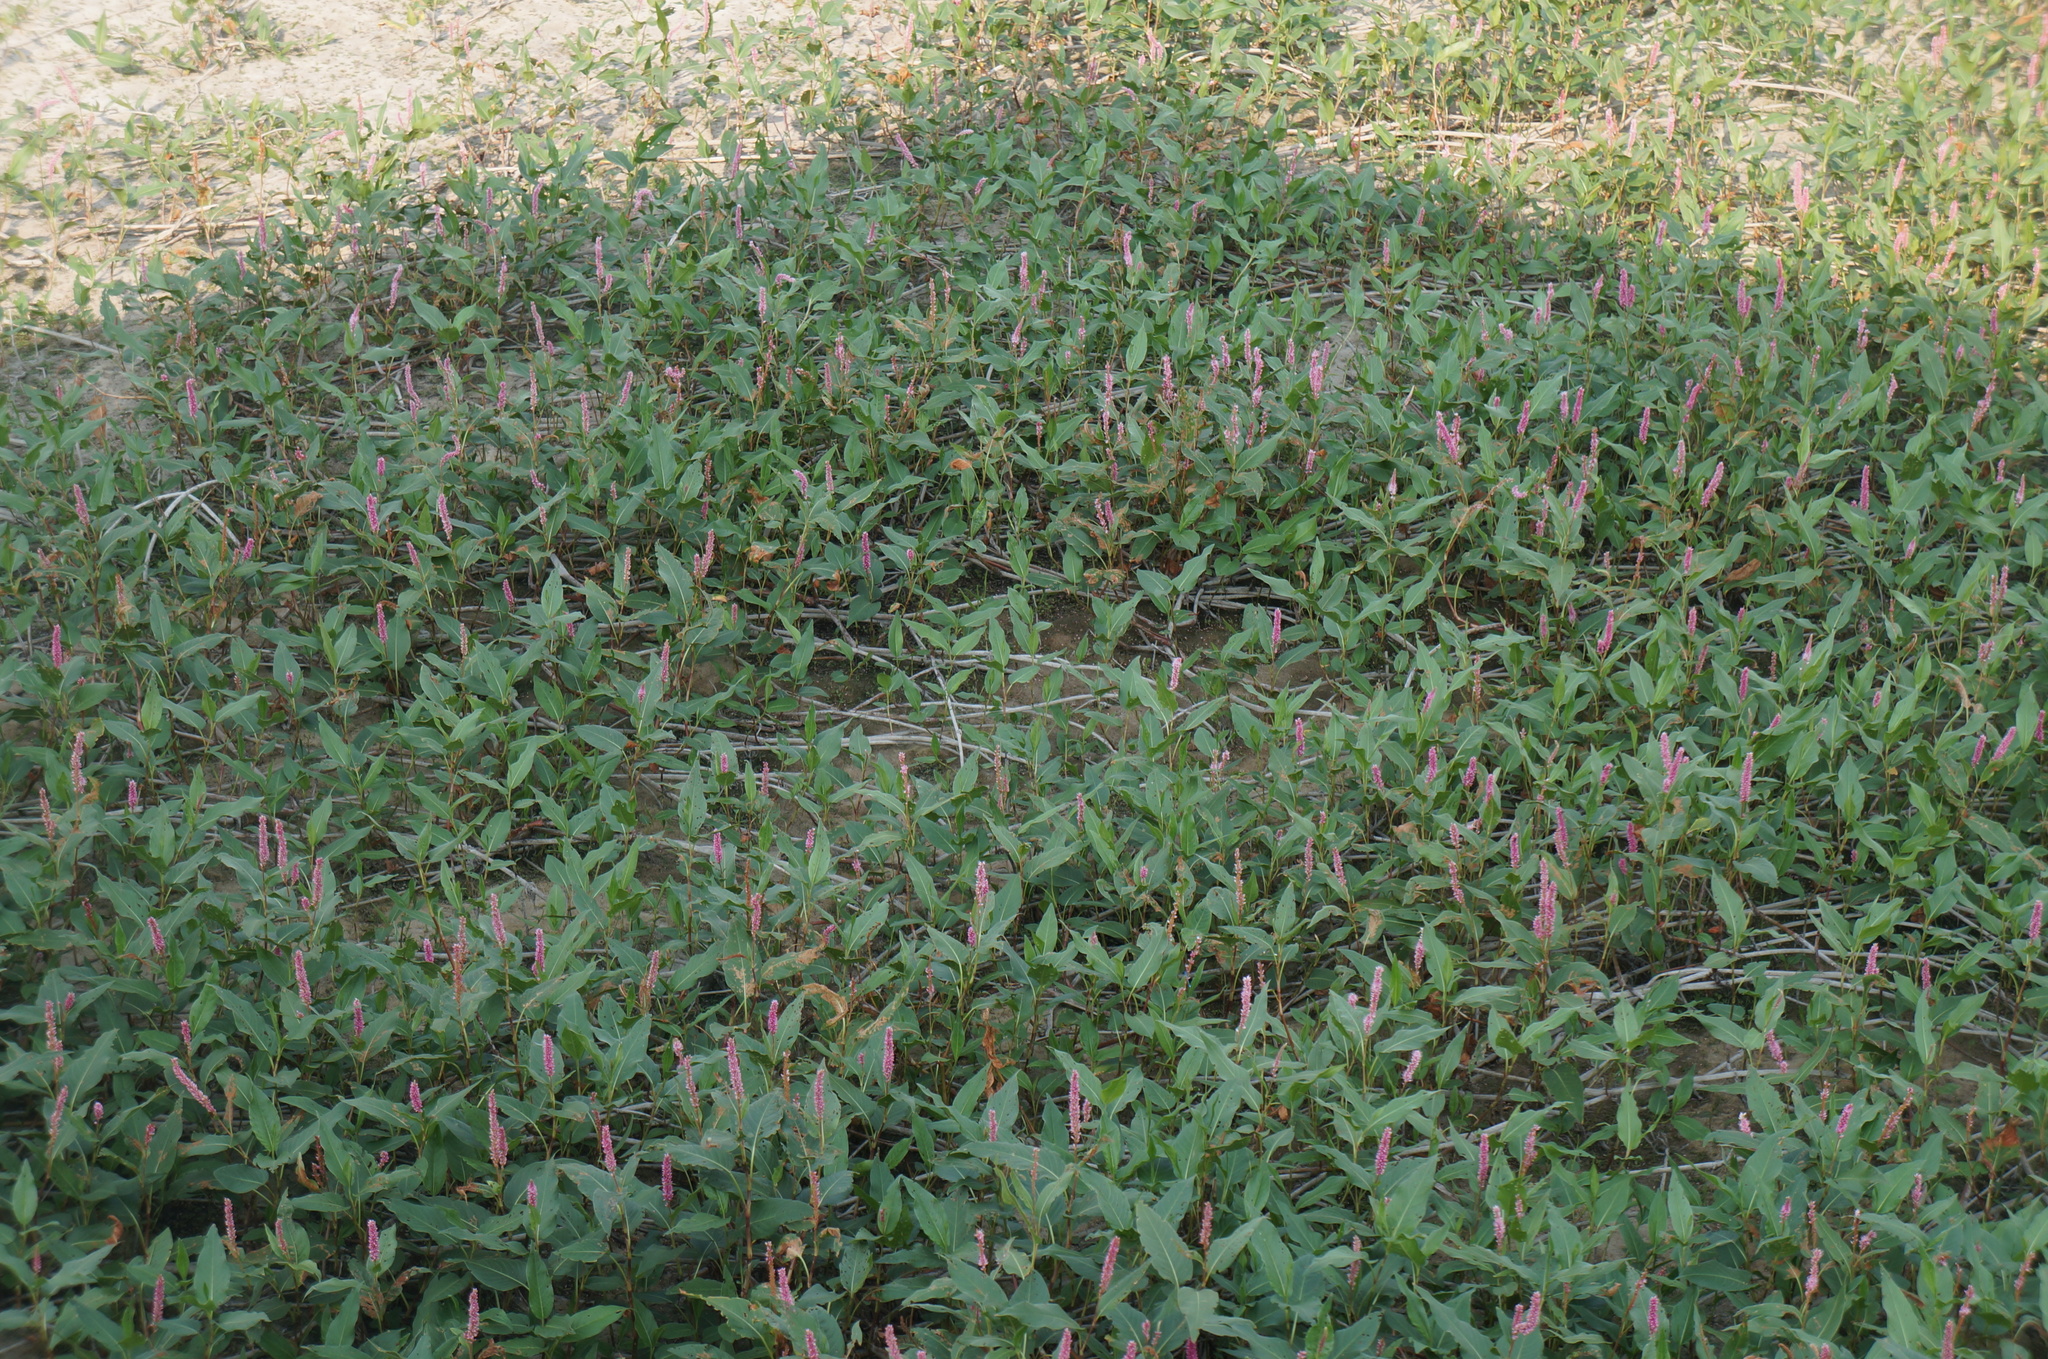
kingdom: Plantae
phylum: Tracheophyta
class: Magnoliopsida
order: Caryophyllales
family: Polygonaceae
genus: Persicaria
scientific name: Persicaria amphibia
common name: Amphibious bistort
